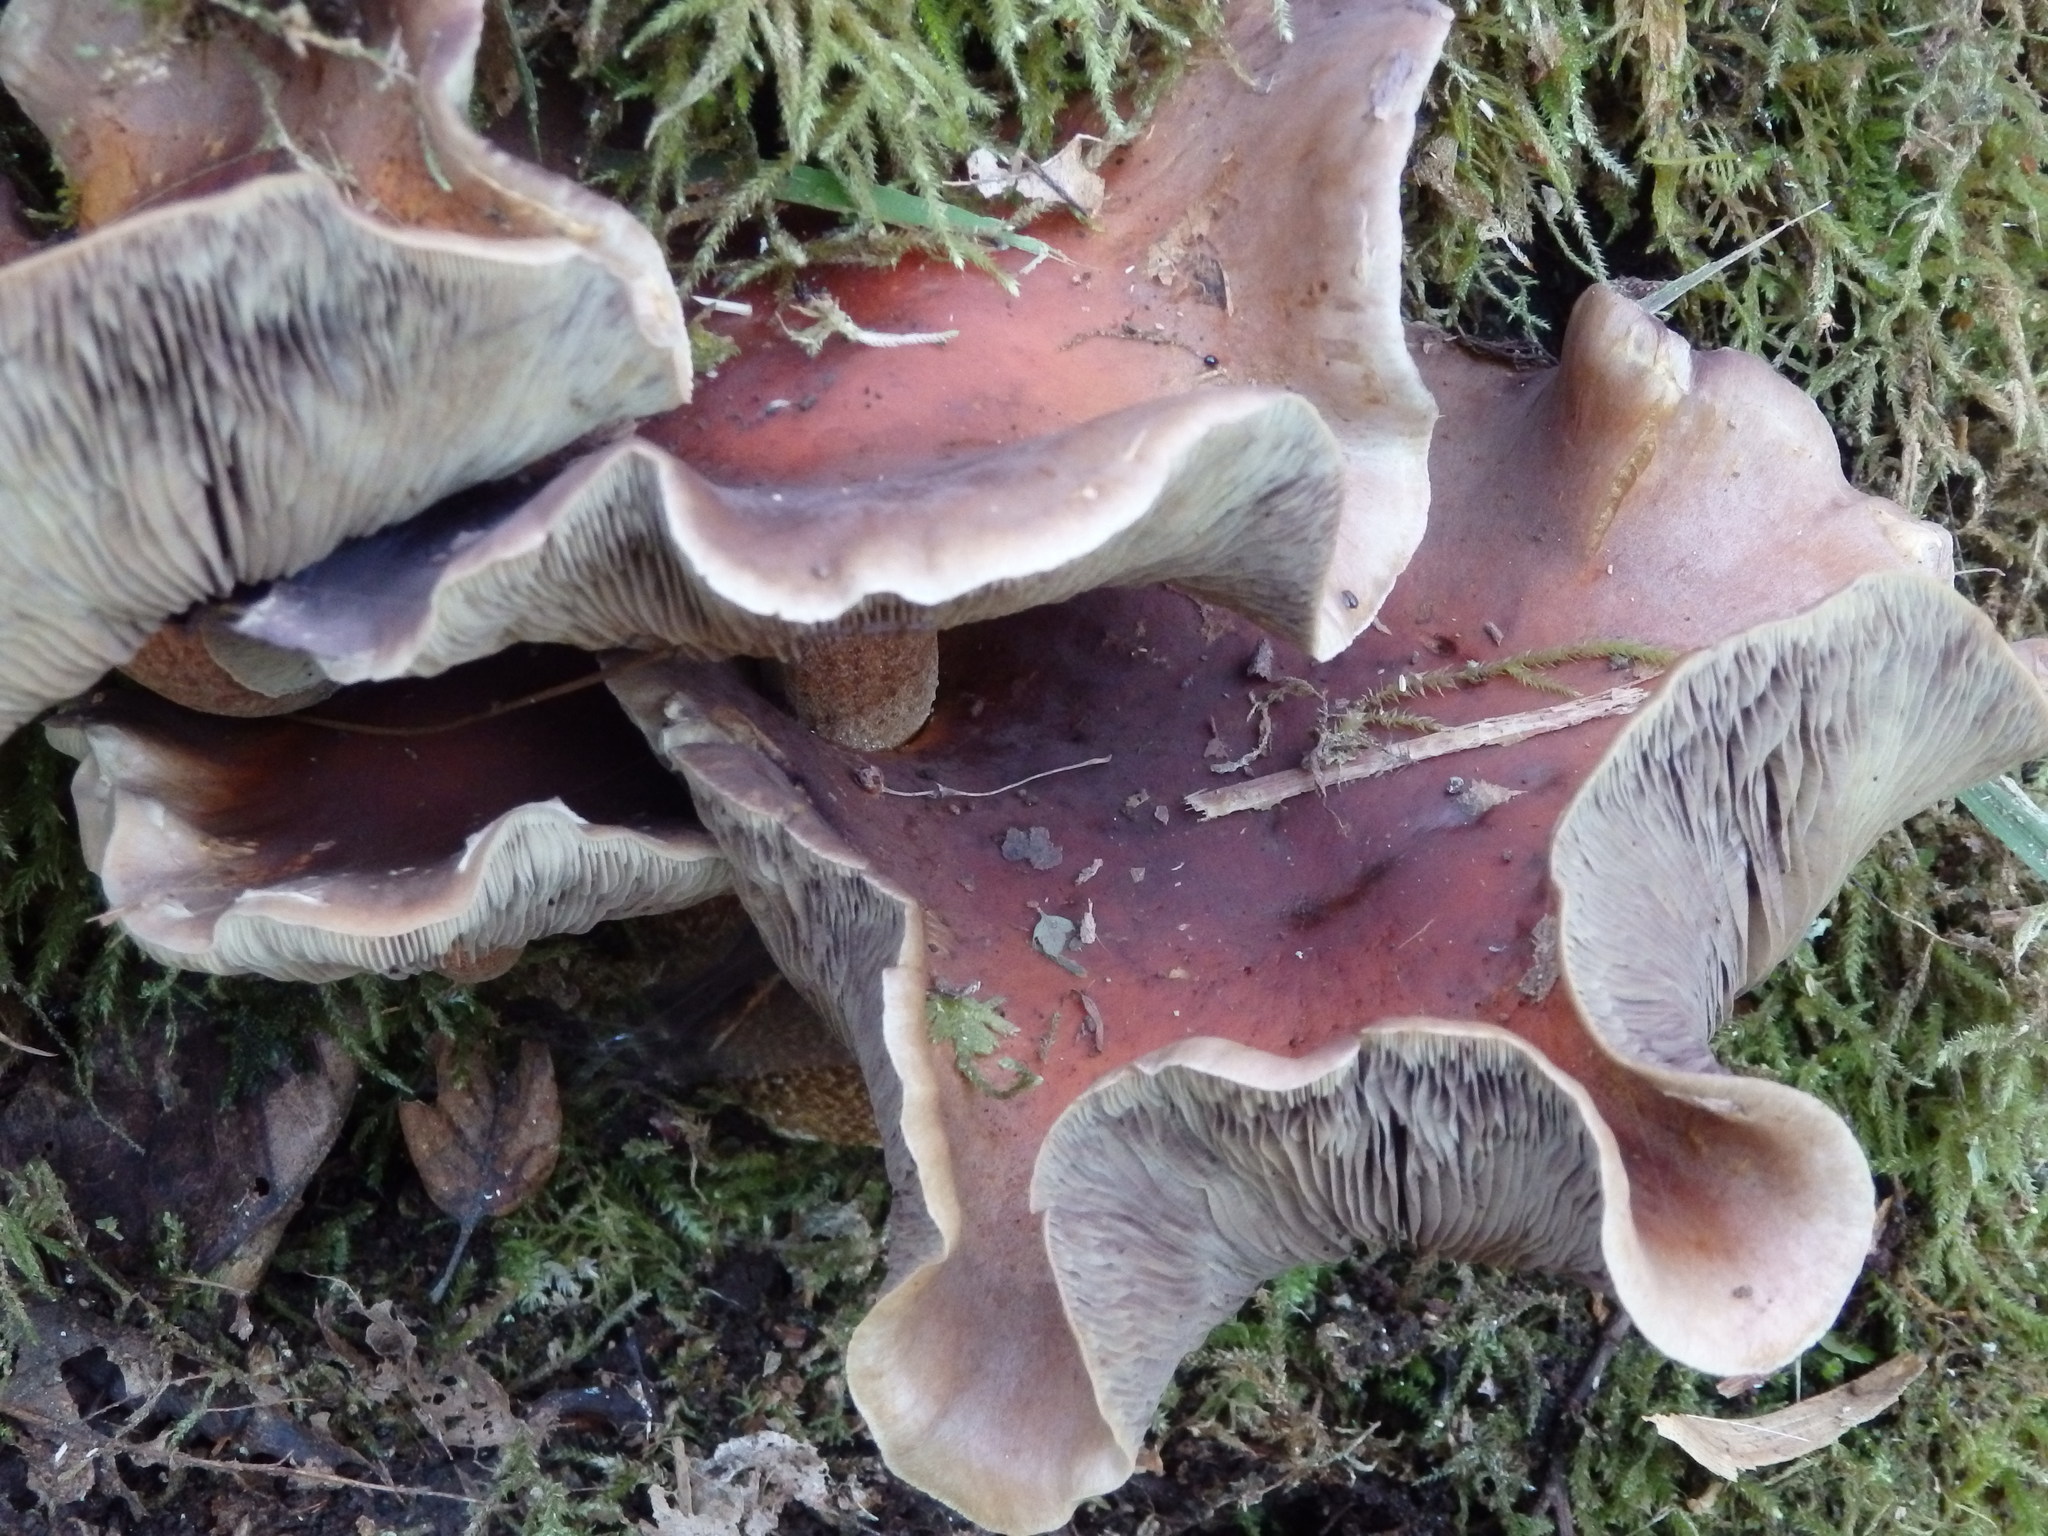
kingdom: Fungi
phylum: Basidiomycota
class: Agaricomycetes
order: Agaricales
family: Strophariaceae
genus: Hypholoma
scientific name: Hypholoma lateritium
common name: Brick caps
